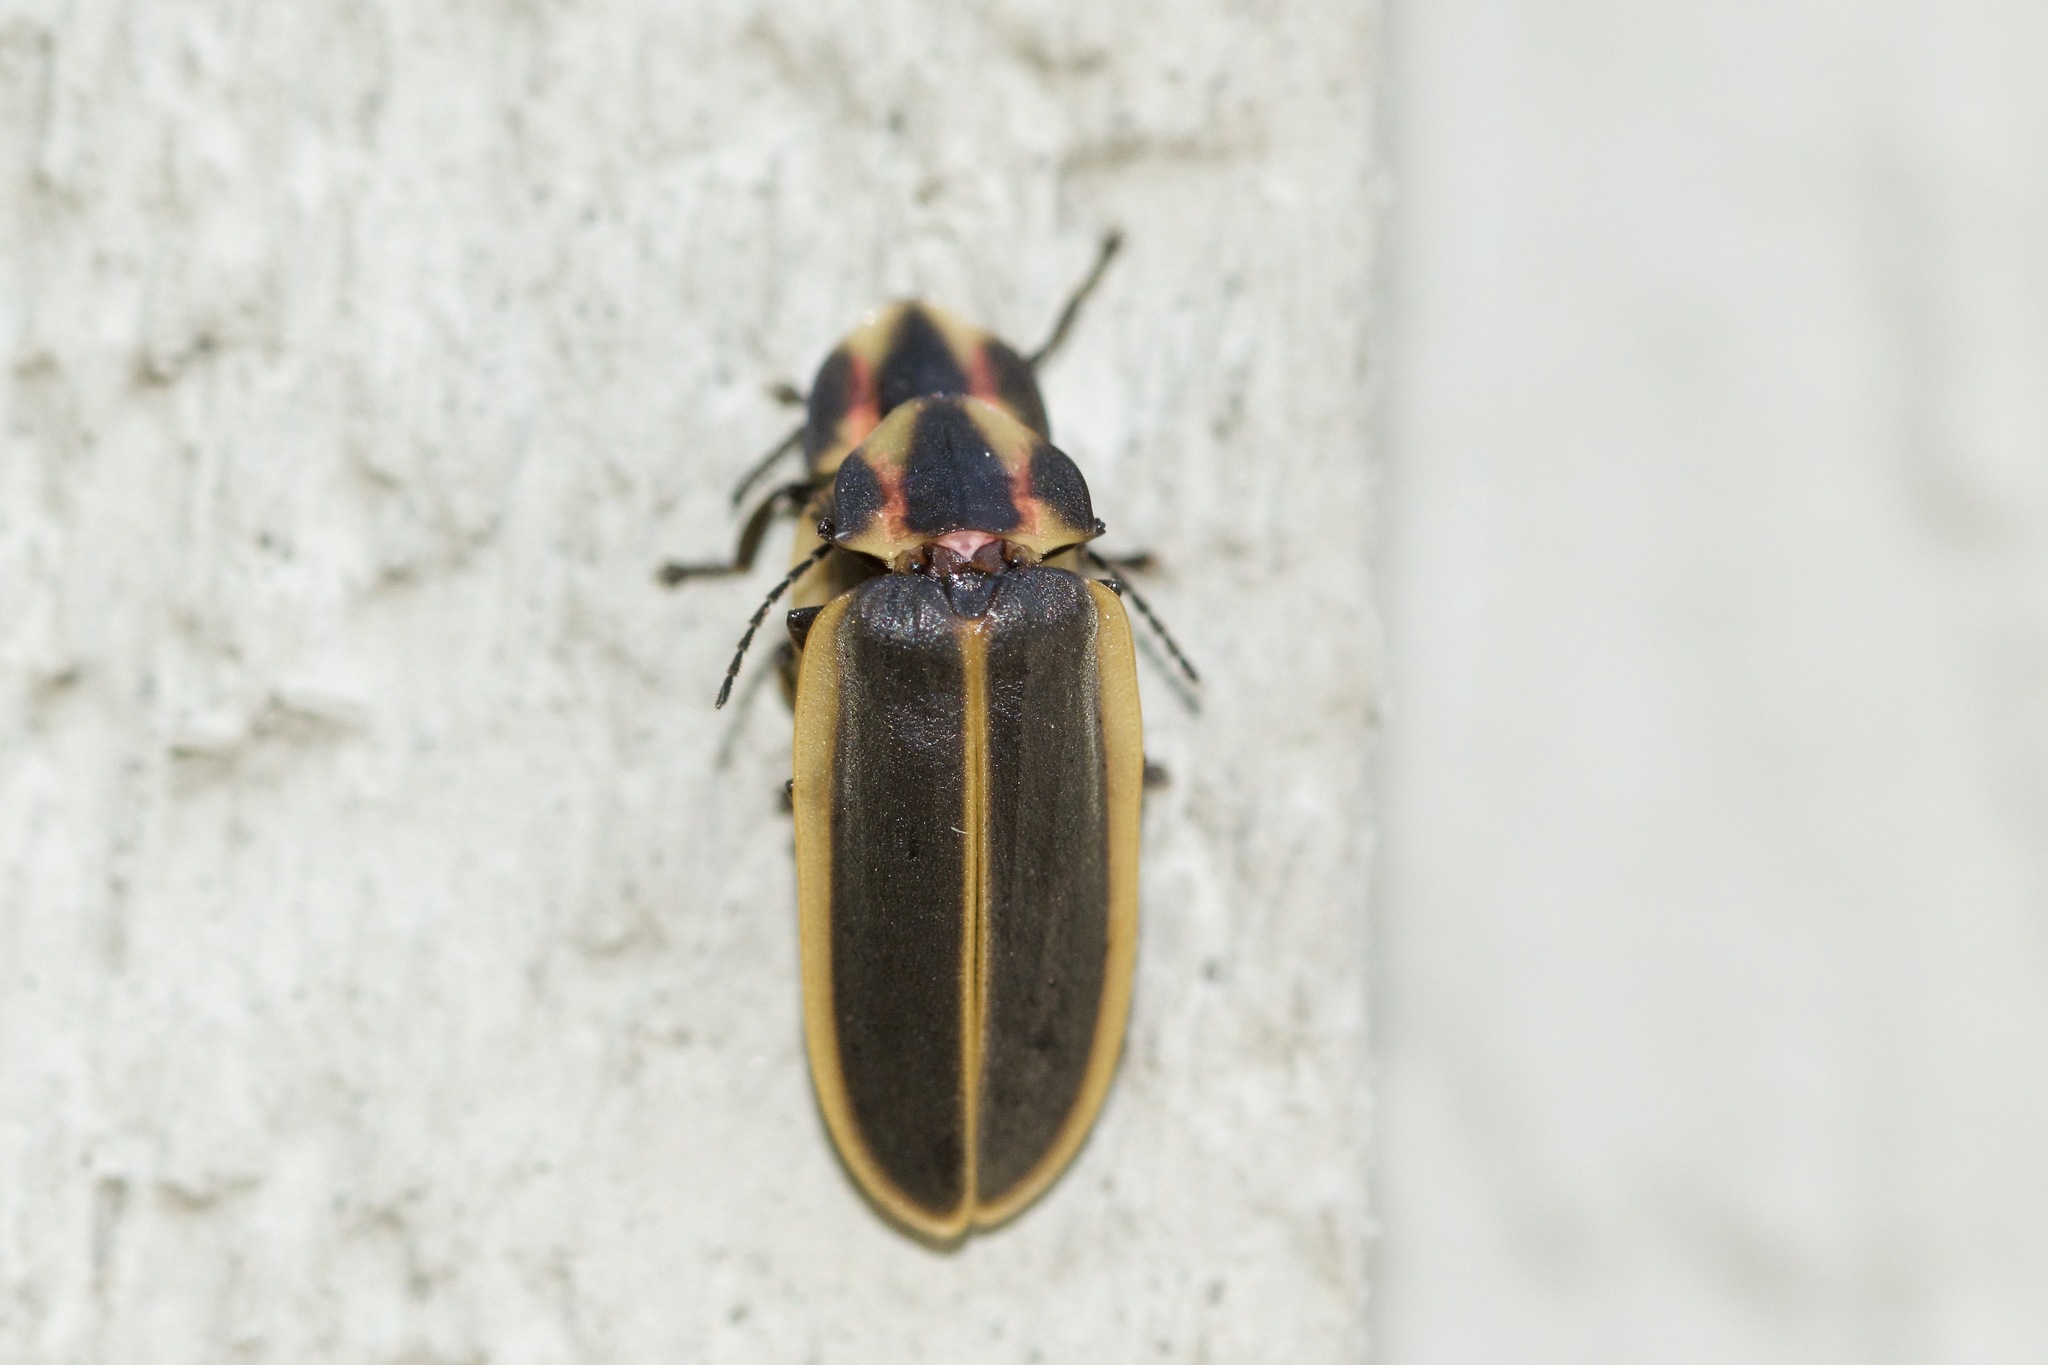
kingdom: Animalia
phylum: Arthropoda
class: Insecta
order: Coleoptera
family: Lampyridae
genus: Pyractomena
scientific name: Pyractomena angulata
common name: Candle firefly
